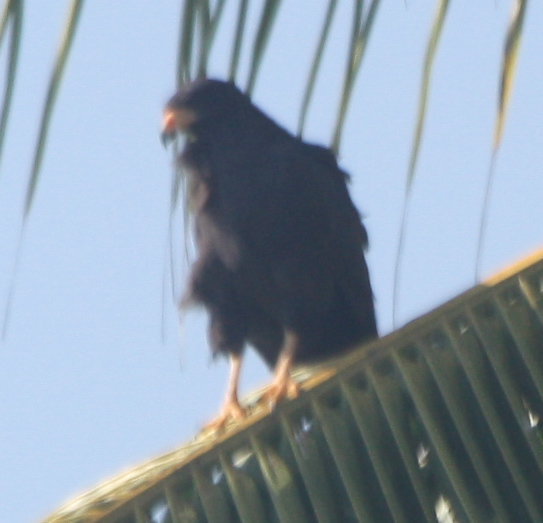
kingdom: Animalia
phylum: Chordata
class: Aves
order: Accipitriformes
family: Accipitridae
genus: Buteogallus
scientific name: Buteogallus anthracinus
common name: Common black hawk
